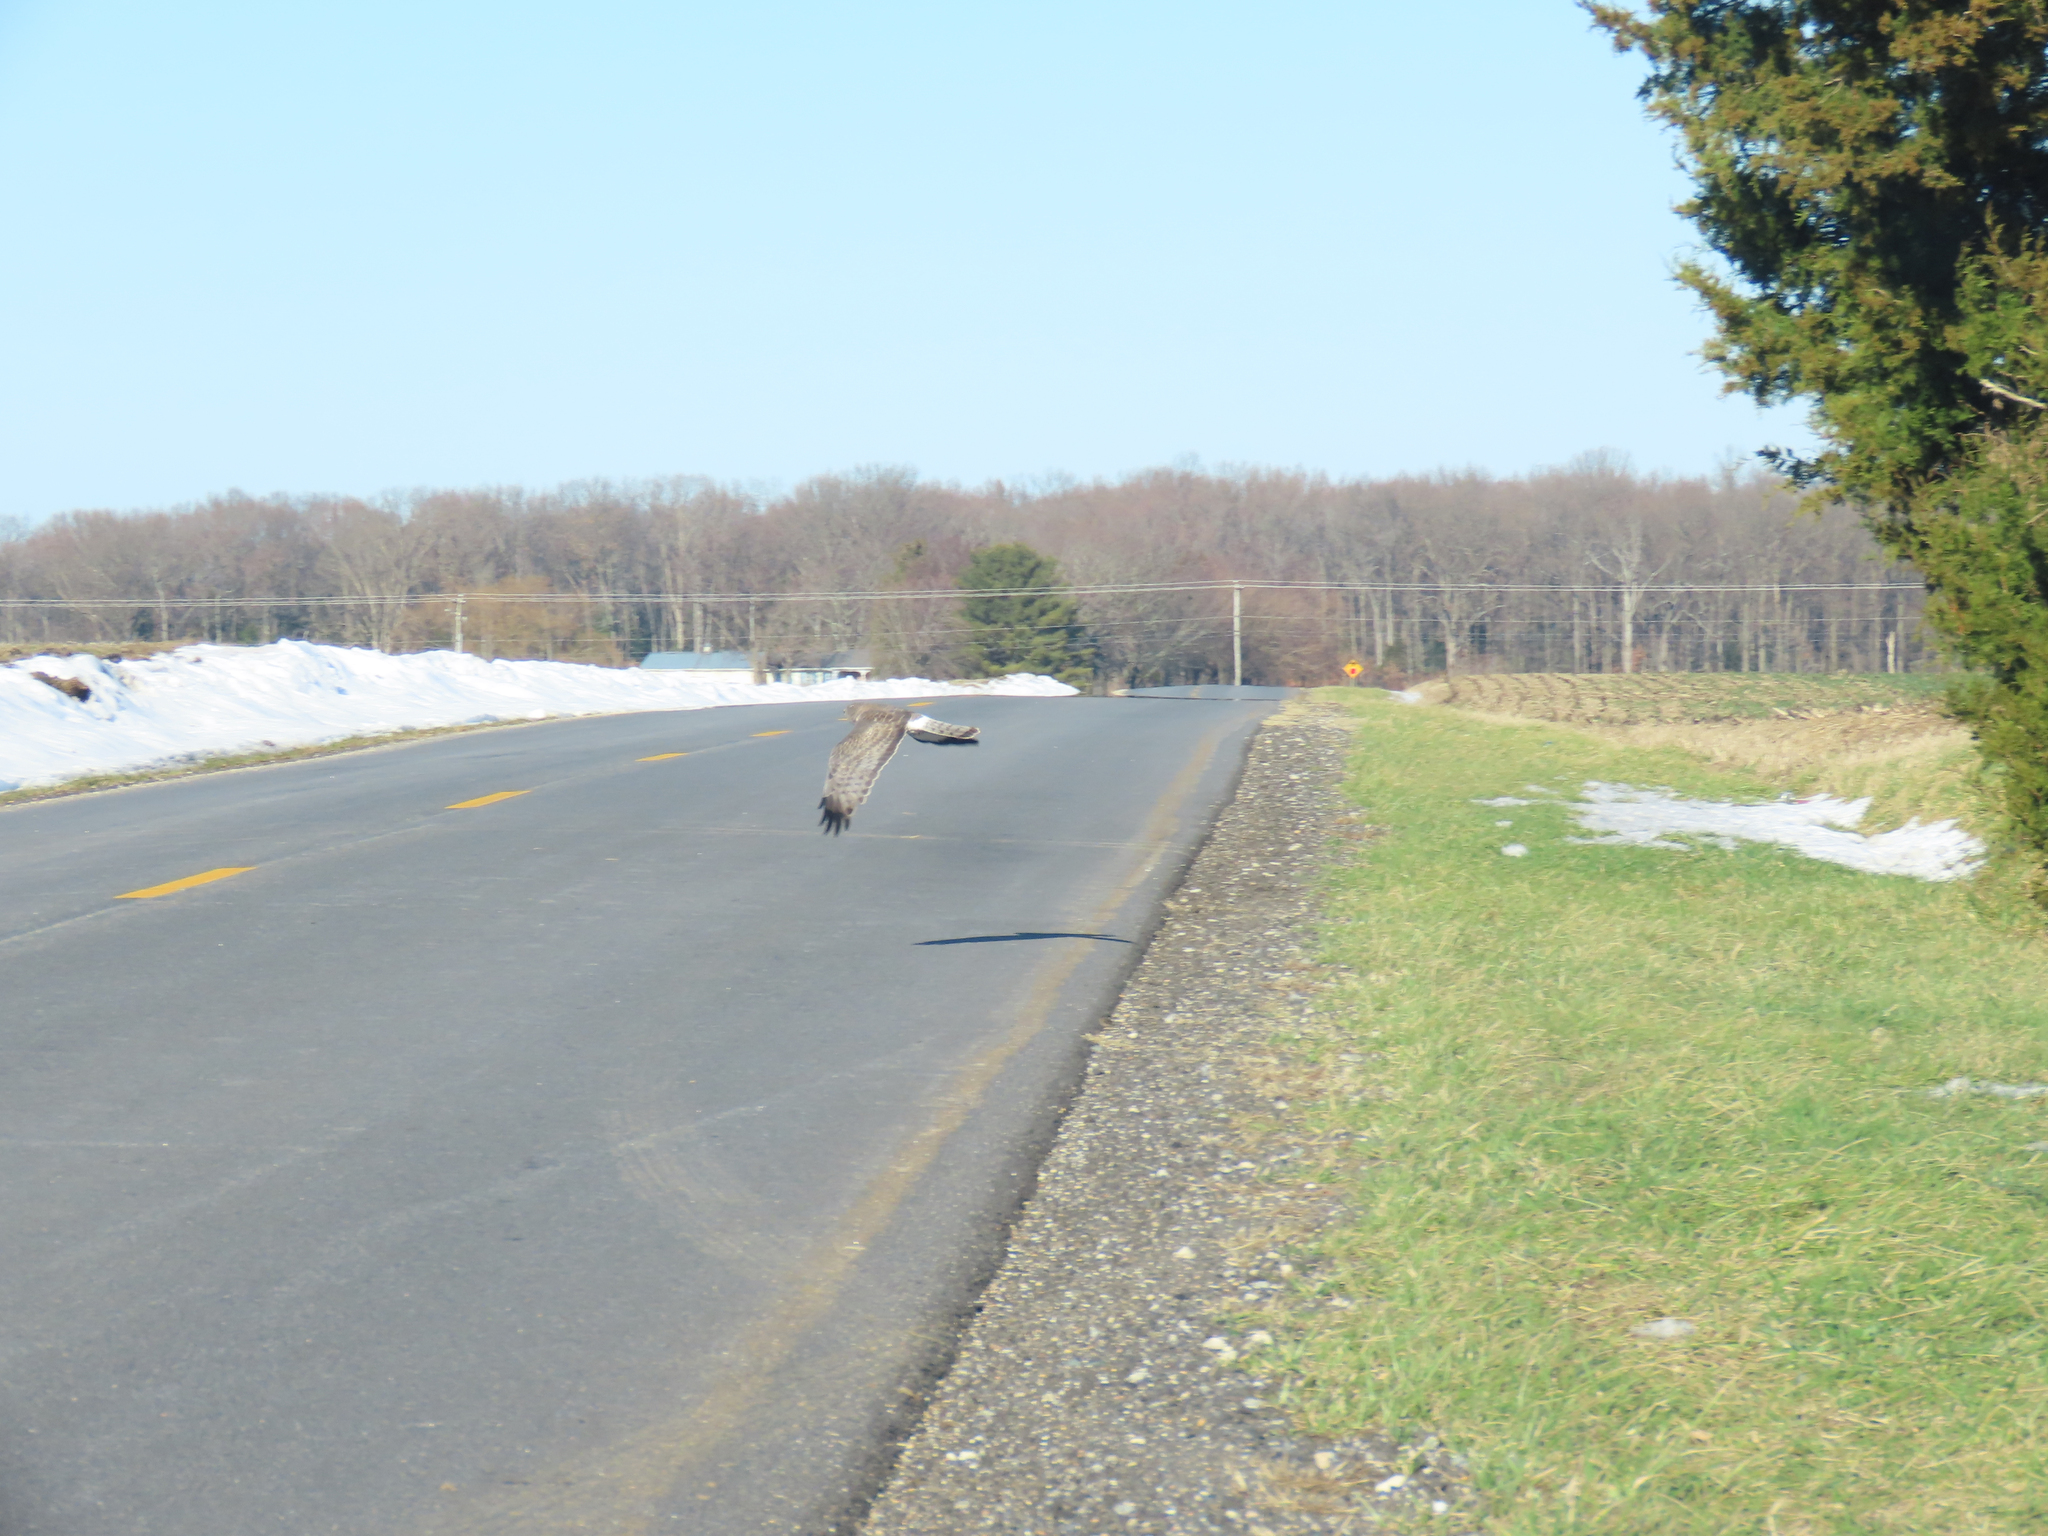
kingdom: Animalia
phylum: Chordata
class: Aves
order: Accipitriformes
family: Accipitridae
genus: Circus
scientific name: Circus cyaneus
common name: Hen harrier
